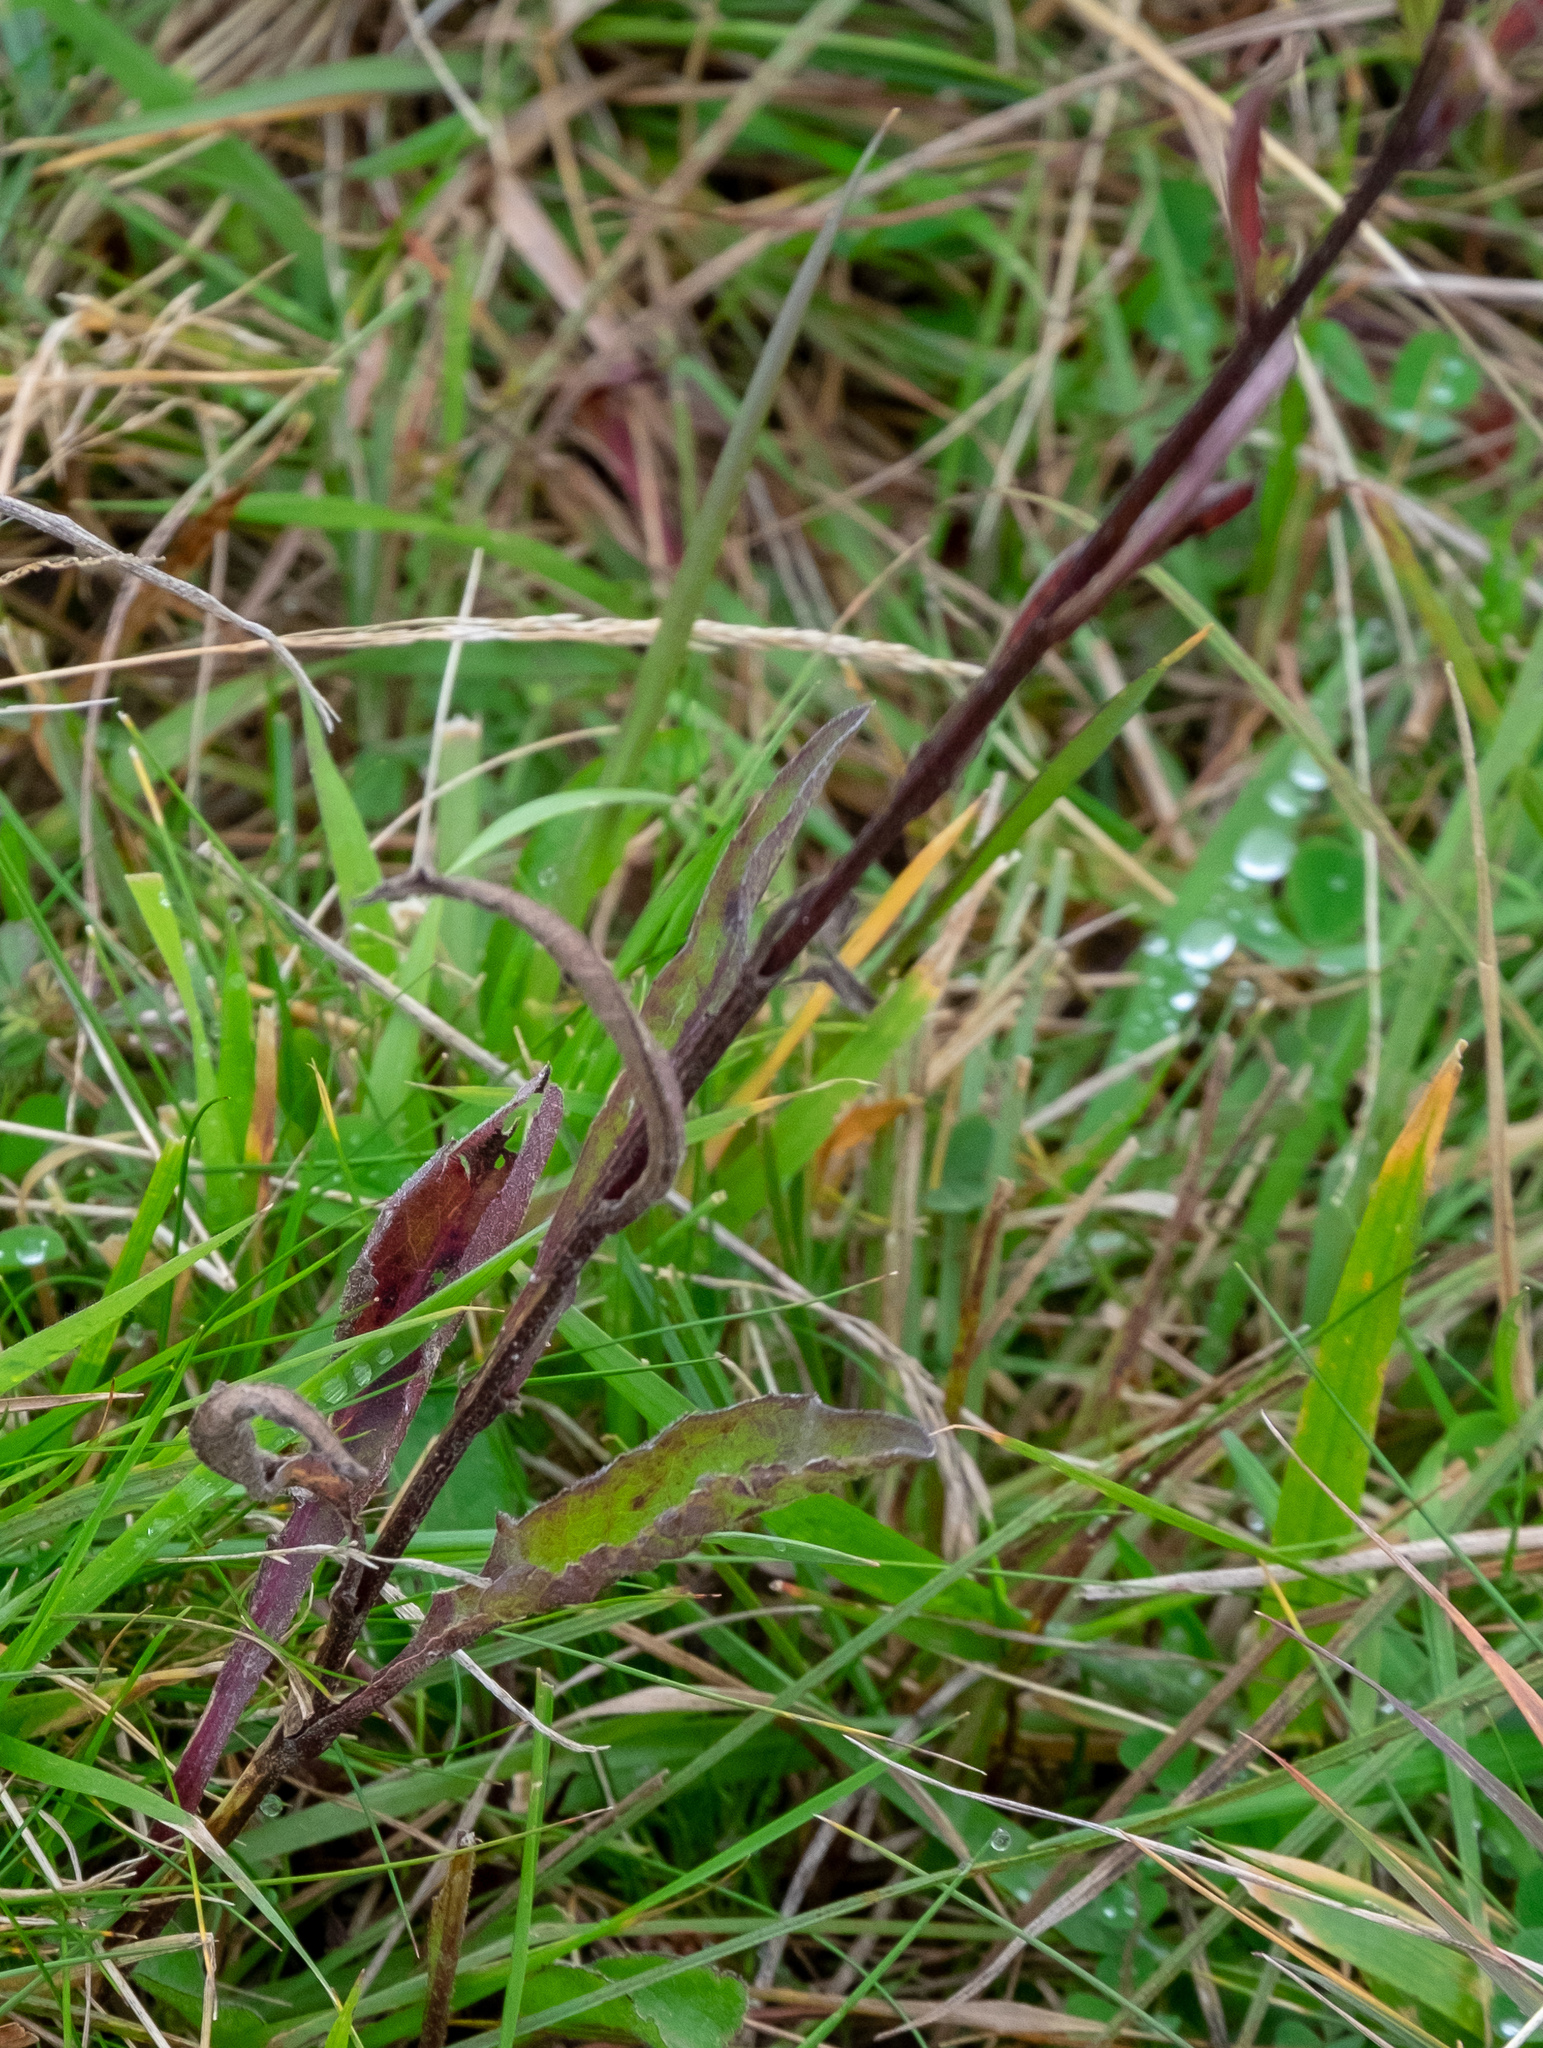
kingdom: Plantae
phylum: Tracheophyta
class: Magnoliopsida
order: Asterales
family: Asteraceae
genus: Centaurea
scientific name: Centaurea nigra
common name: Lesser knapweed
